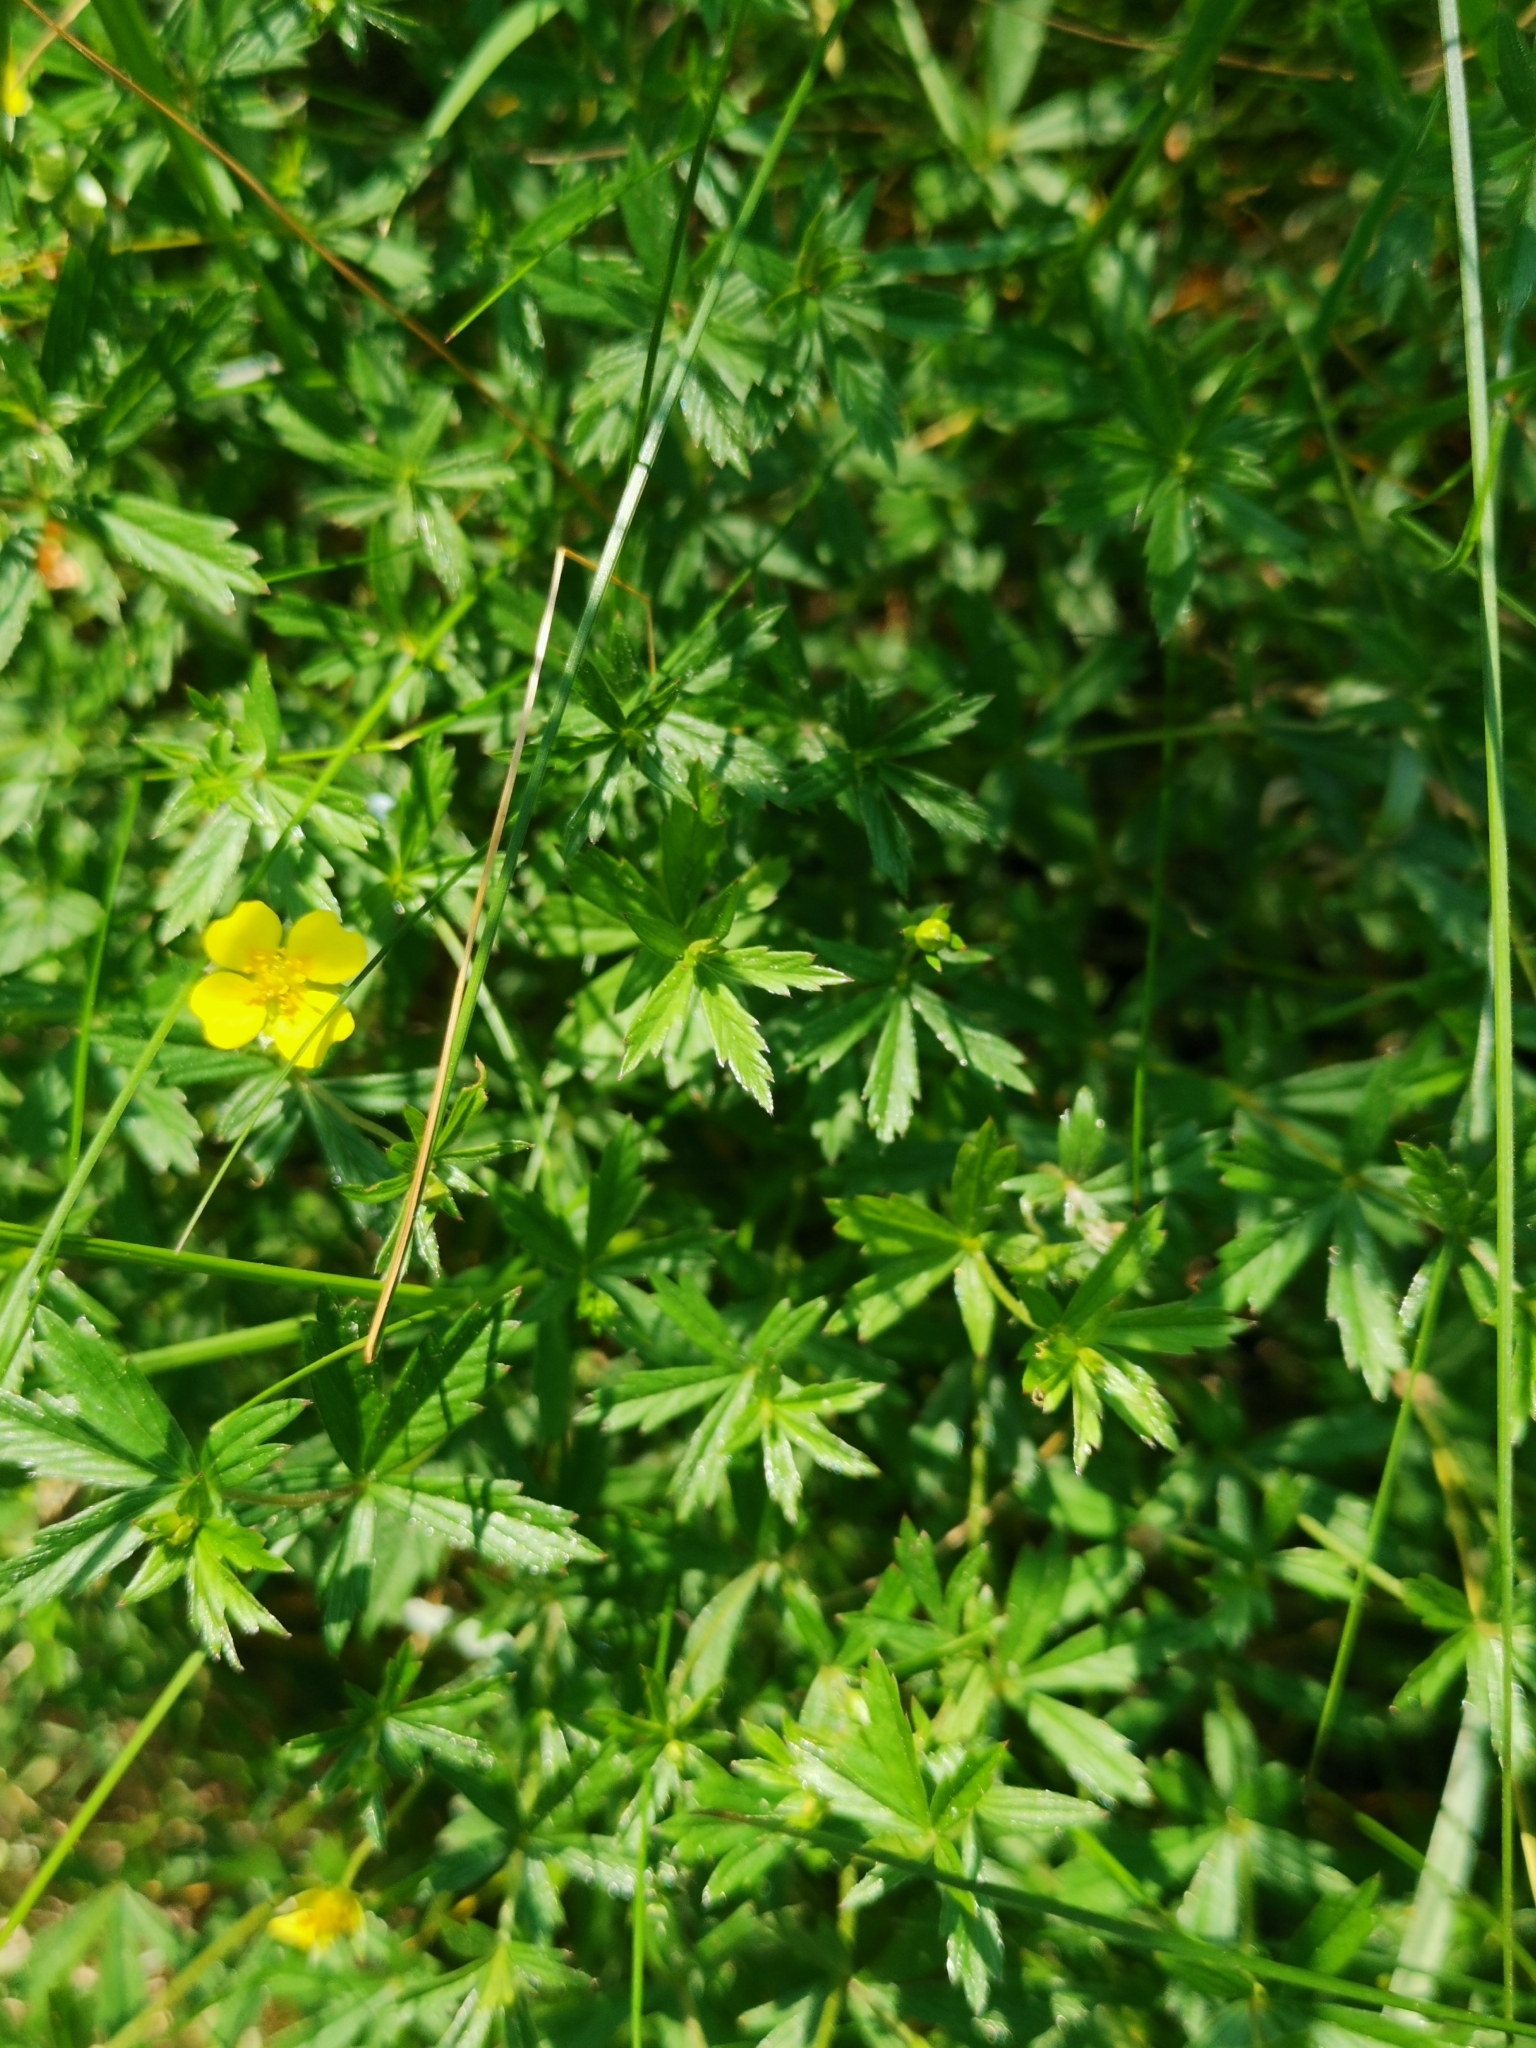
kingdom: Plantae
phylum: Tracheophyta
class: Magnoliopsida
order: Rosales
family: Rosaceae
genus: Potentilla
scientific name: Potentilla erecta
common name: Tormentil
